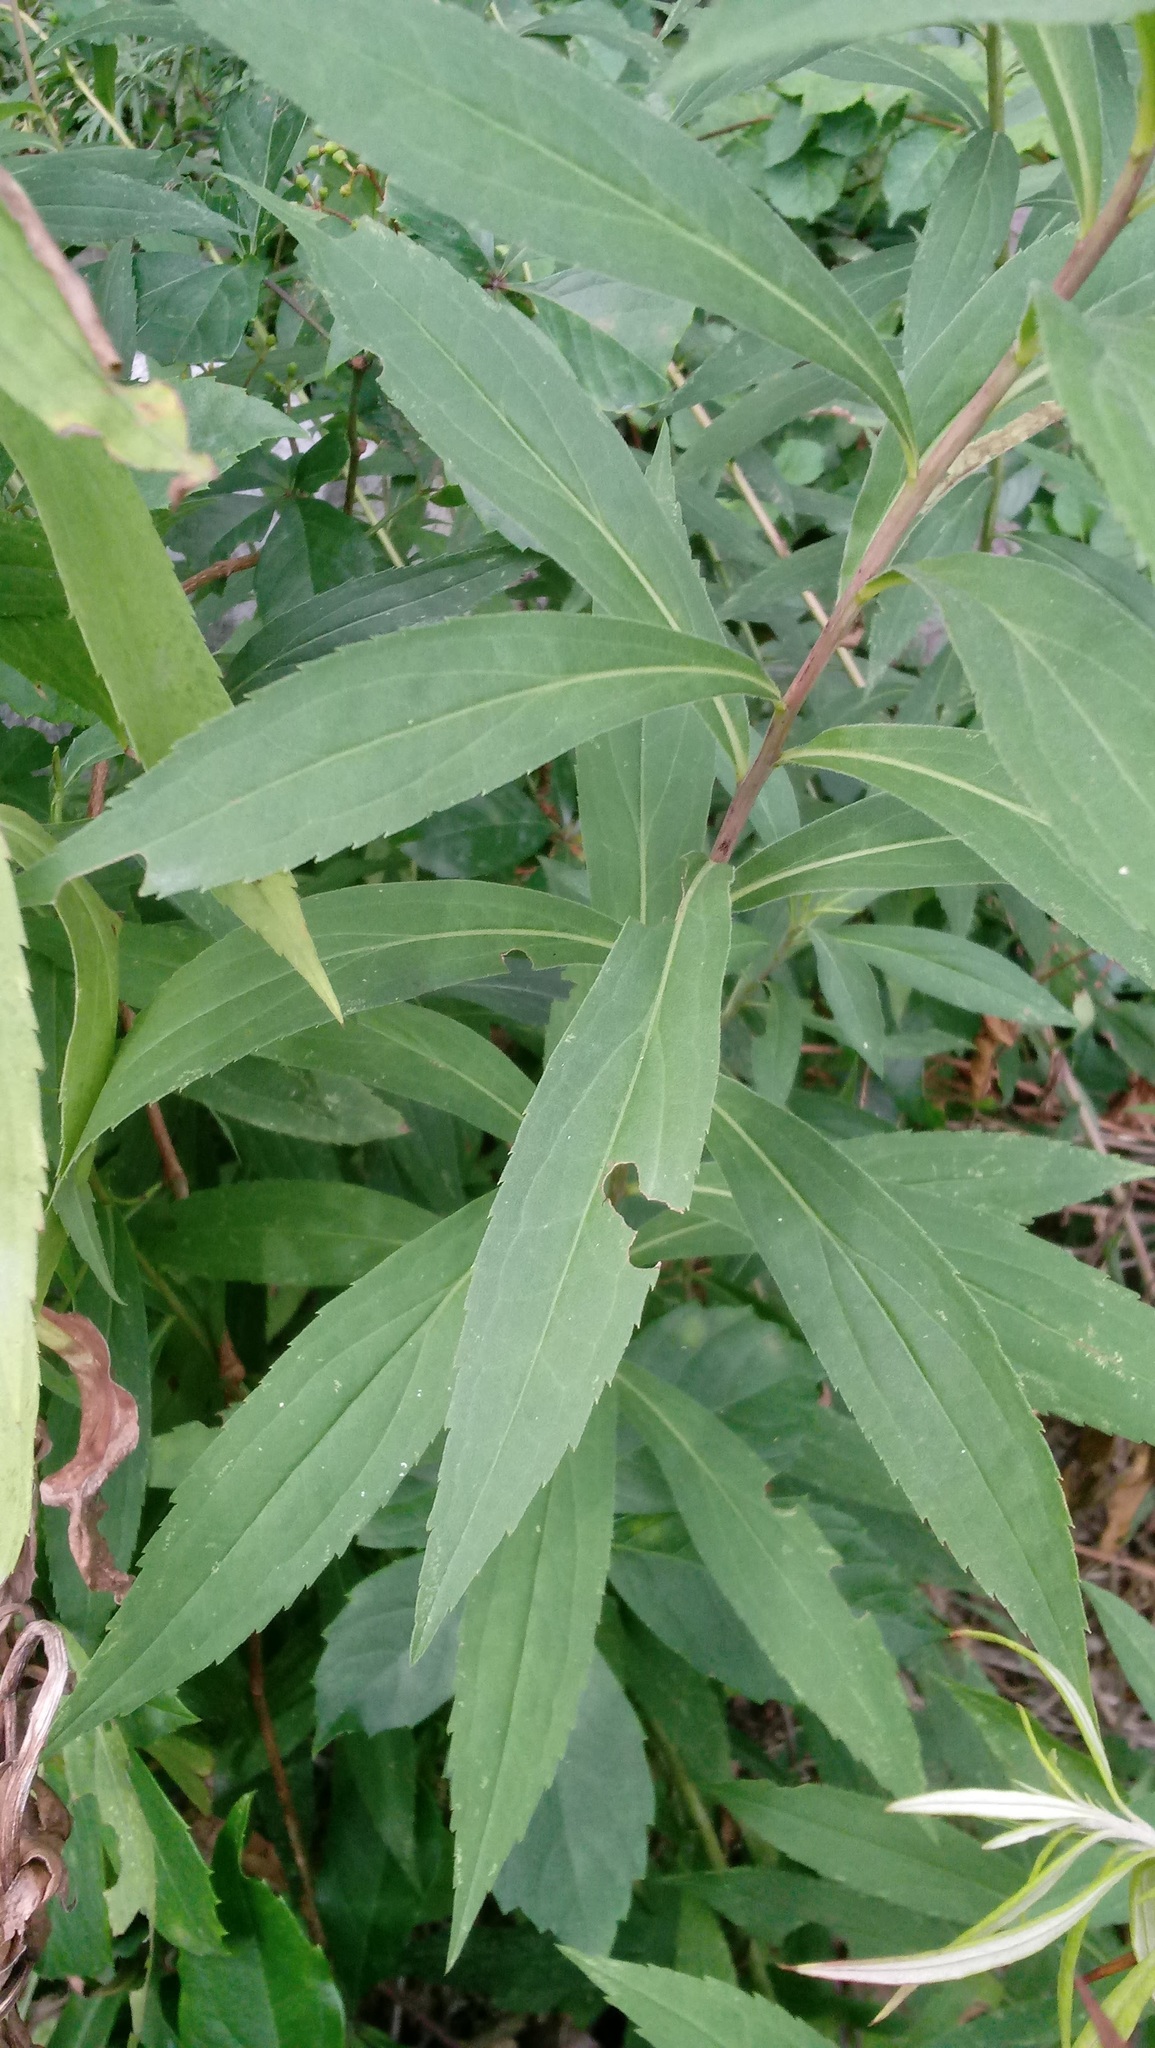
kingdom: Plantae
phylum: Tracheophyta
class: Magnoliopsida
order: Asterales
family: Asteraceae
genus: Solidago
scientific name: Solidago gigantea
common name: Giant goldenrod
